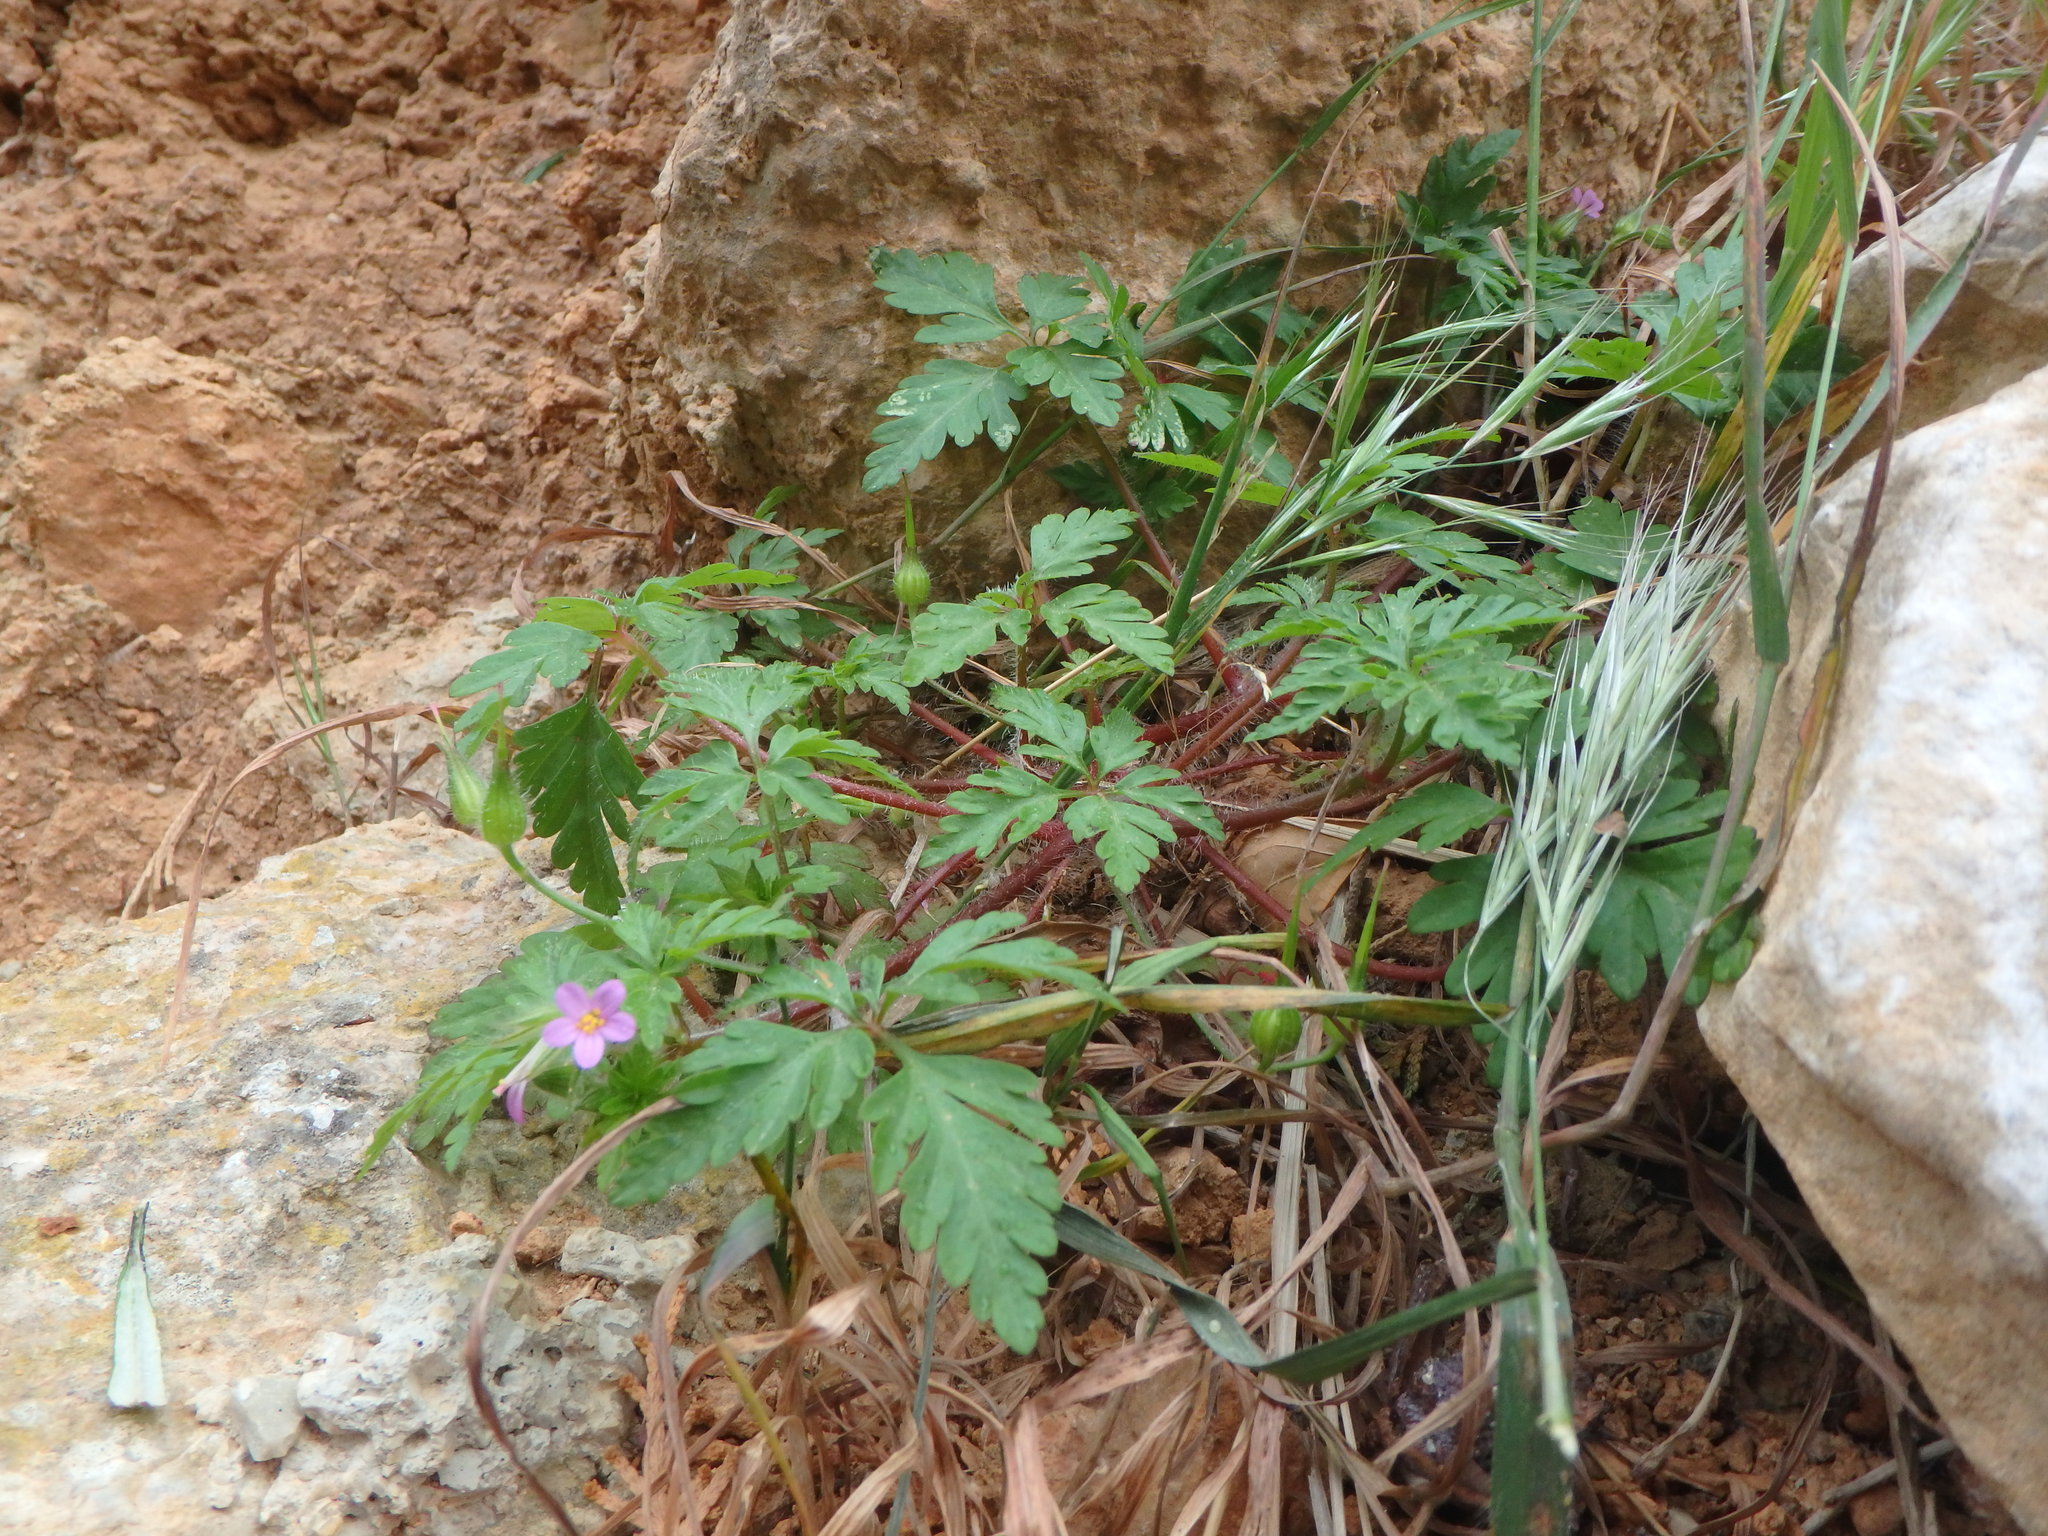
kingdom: Plantae
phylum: Tracheophyta
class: Magnoliopsida
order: Geraniales
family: Geraniaceae
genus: Geranium
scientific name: Geranium purpureum
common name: Little-robin
